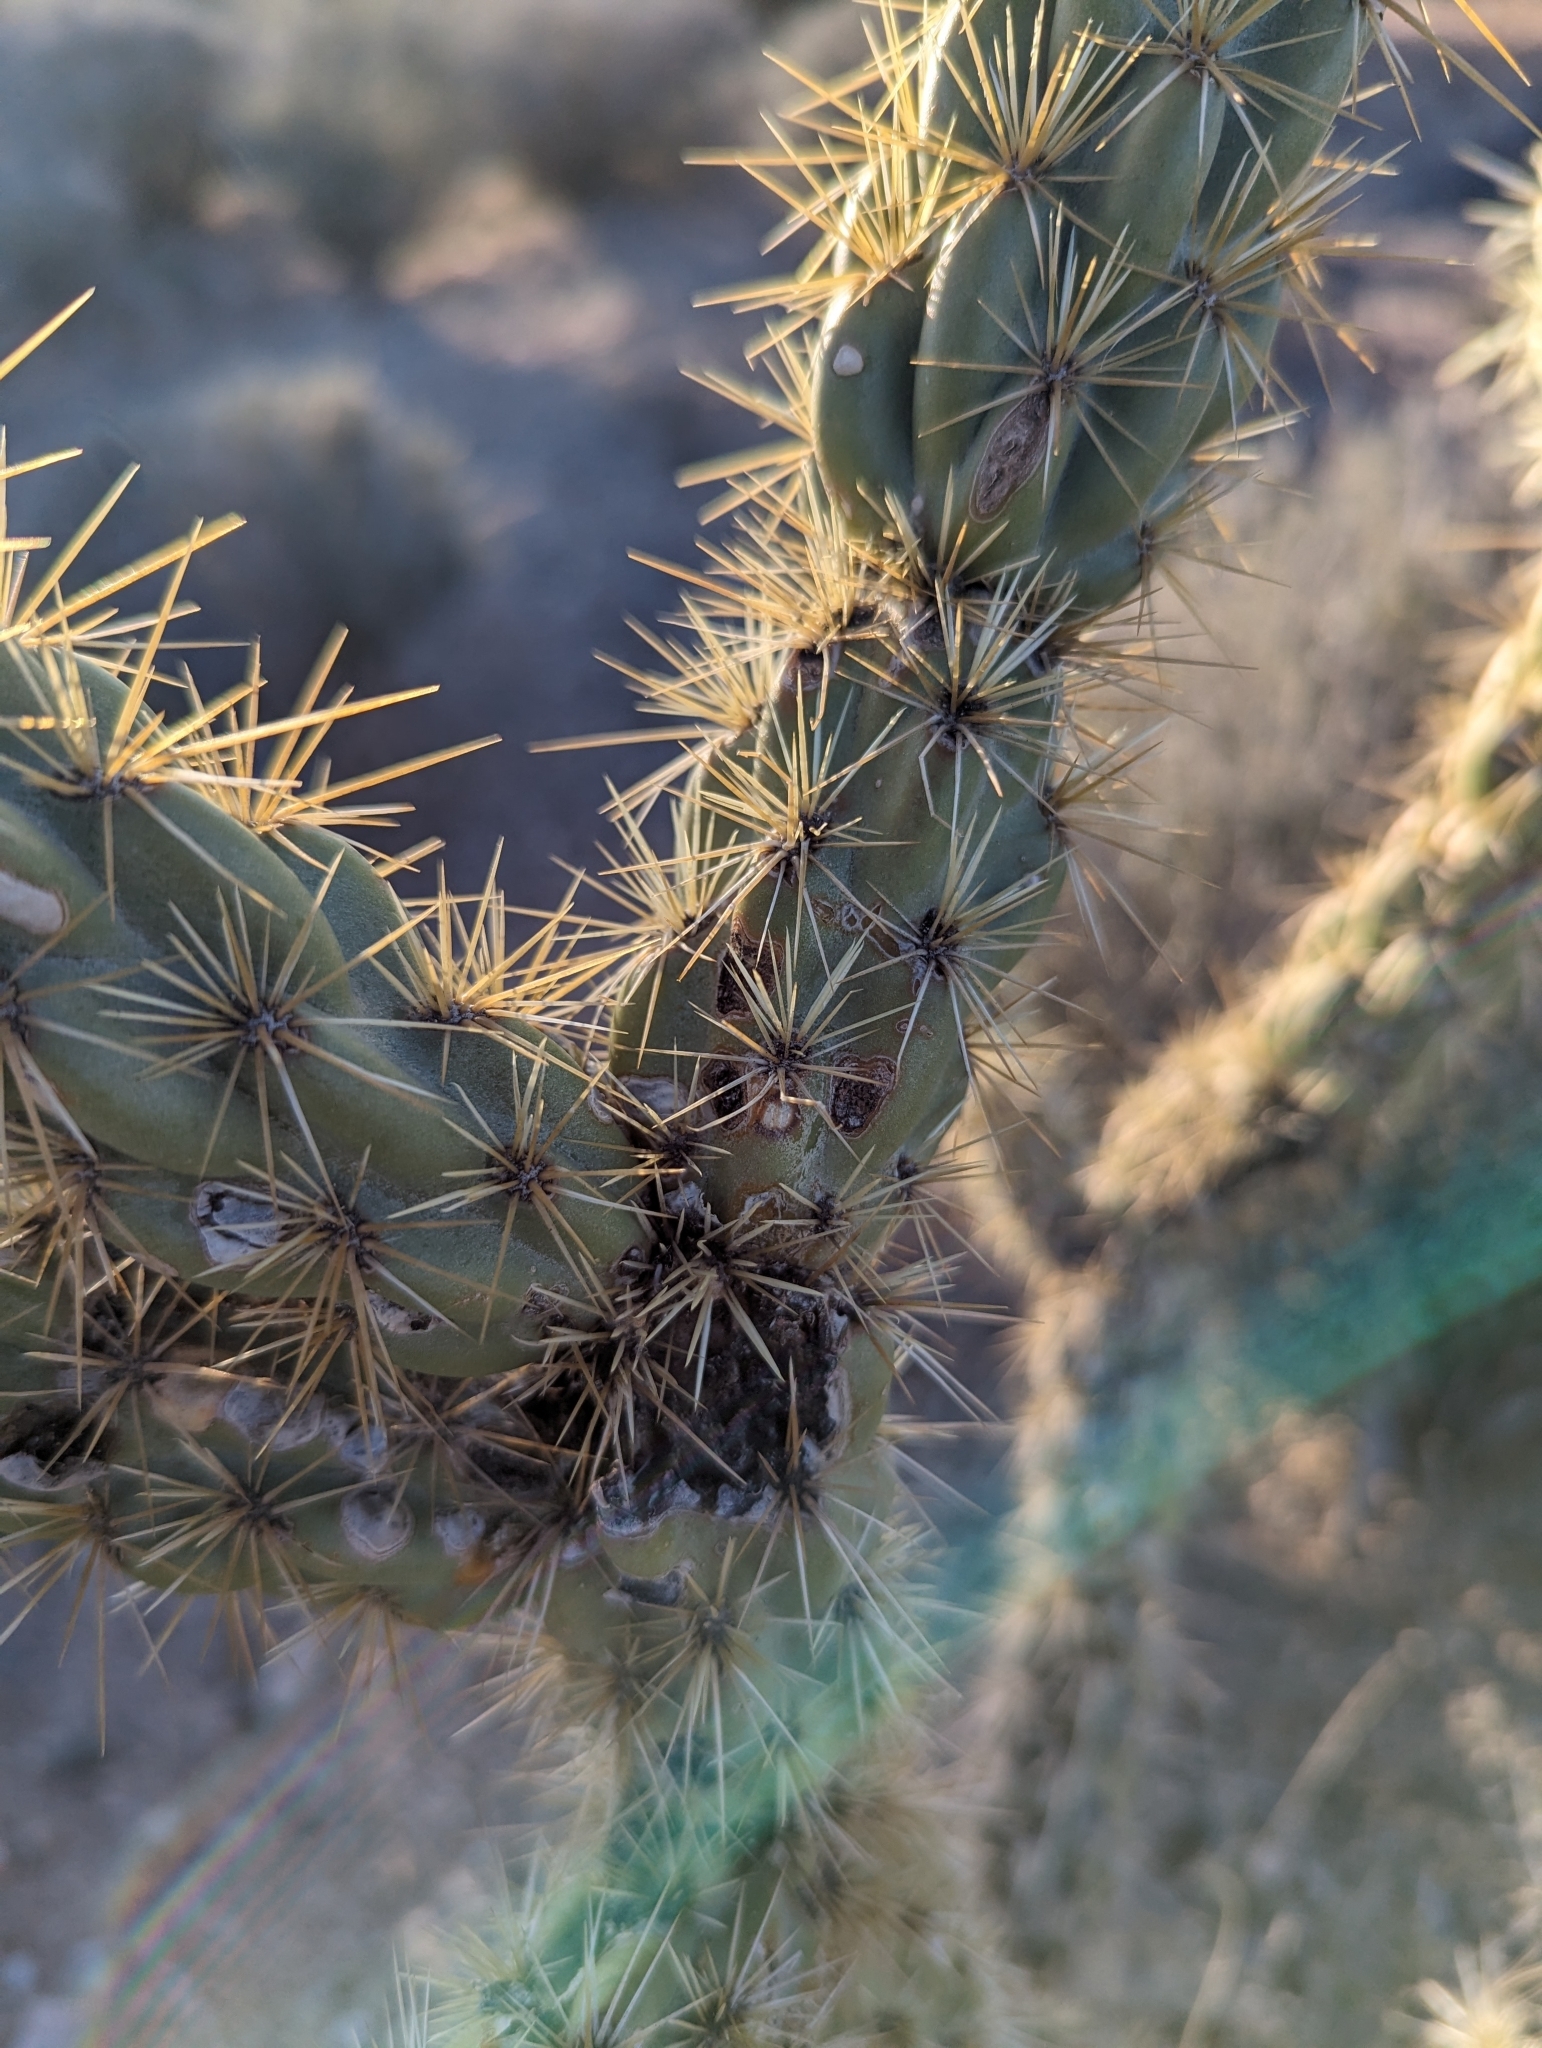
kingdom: Plantae
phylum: Tracheophyta
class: Magnoliopsida
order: Caryophyllales
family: Cactaceae
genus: Cylindropuntia
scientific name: Cylindropuntia acanthocarpa
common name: Buckhorn cholla
